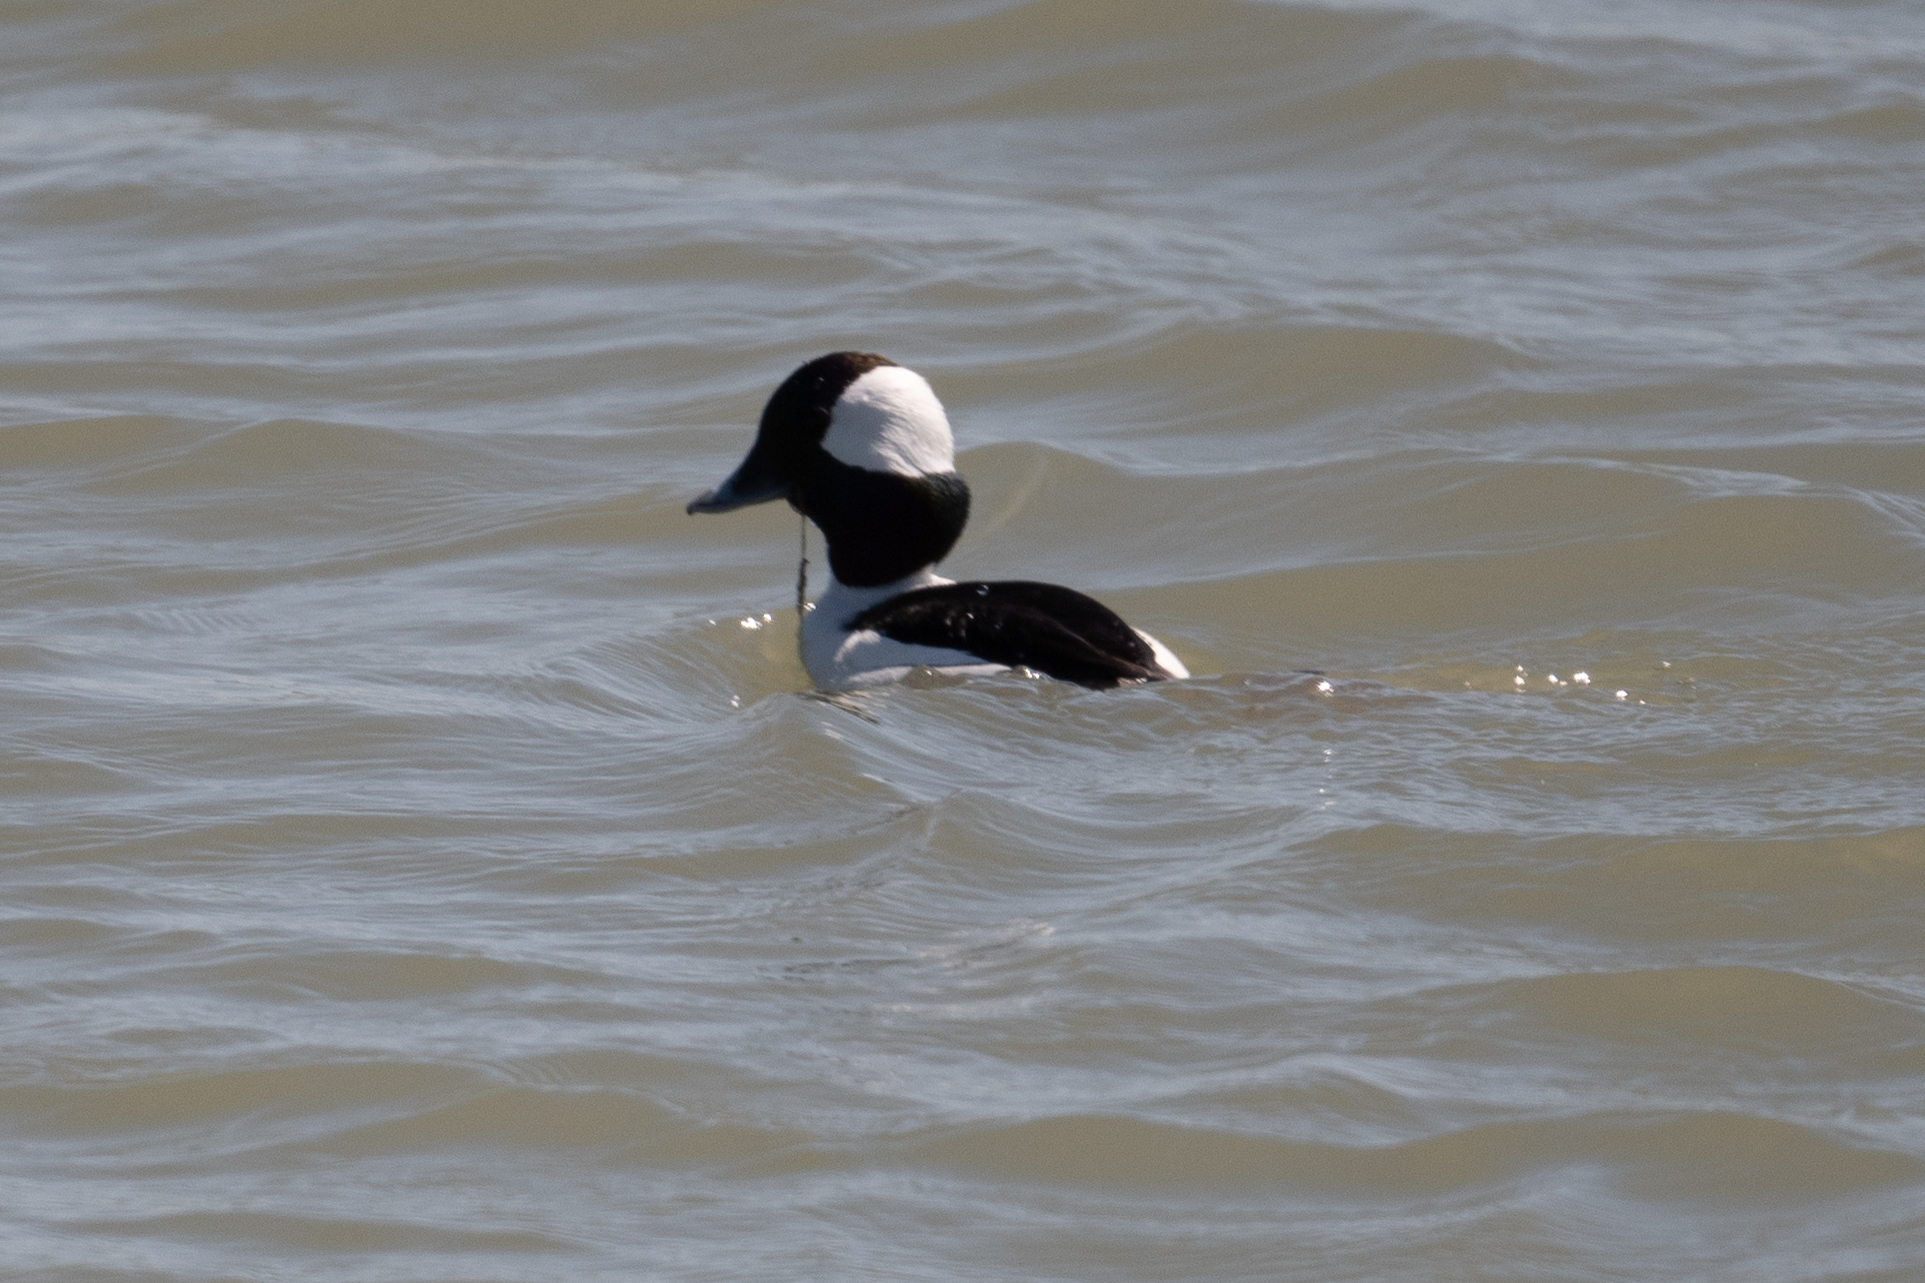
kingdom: Animalia
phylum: Chordata
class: Aves
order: Anseriformes
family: Anatidae
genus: Bucephala
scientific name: Bucephala albeola
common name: Bufflehead
